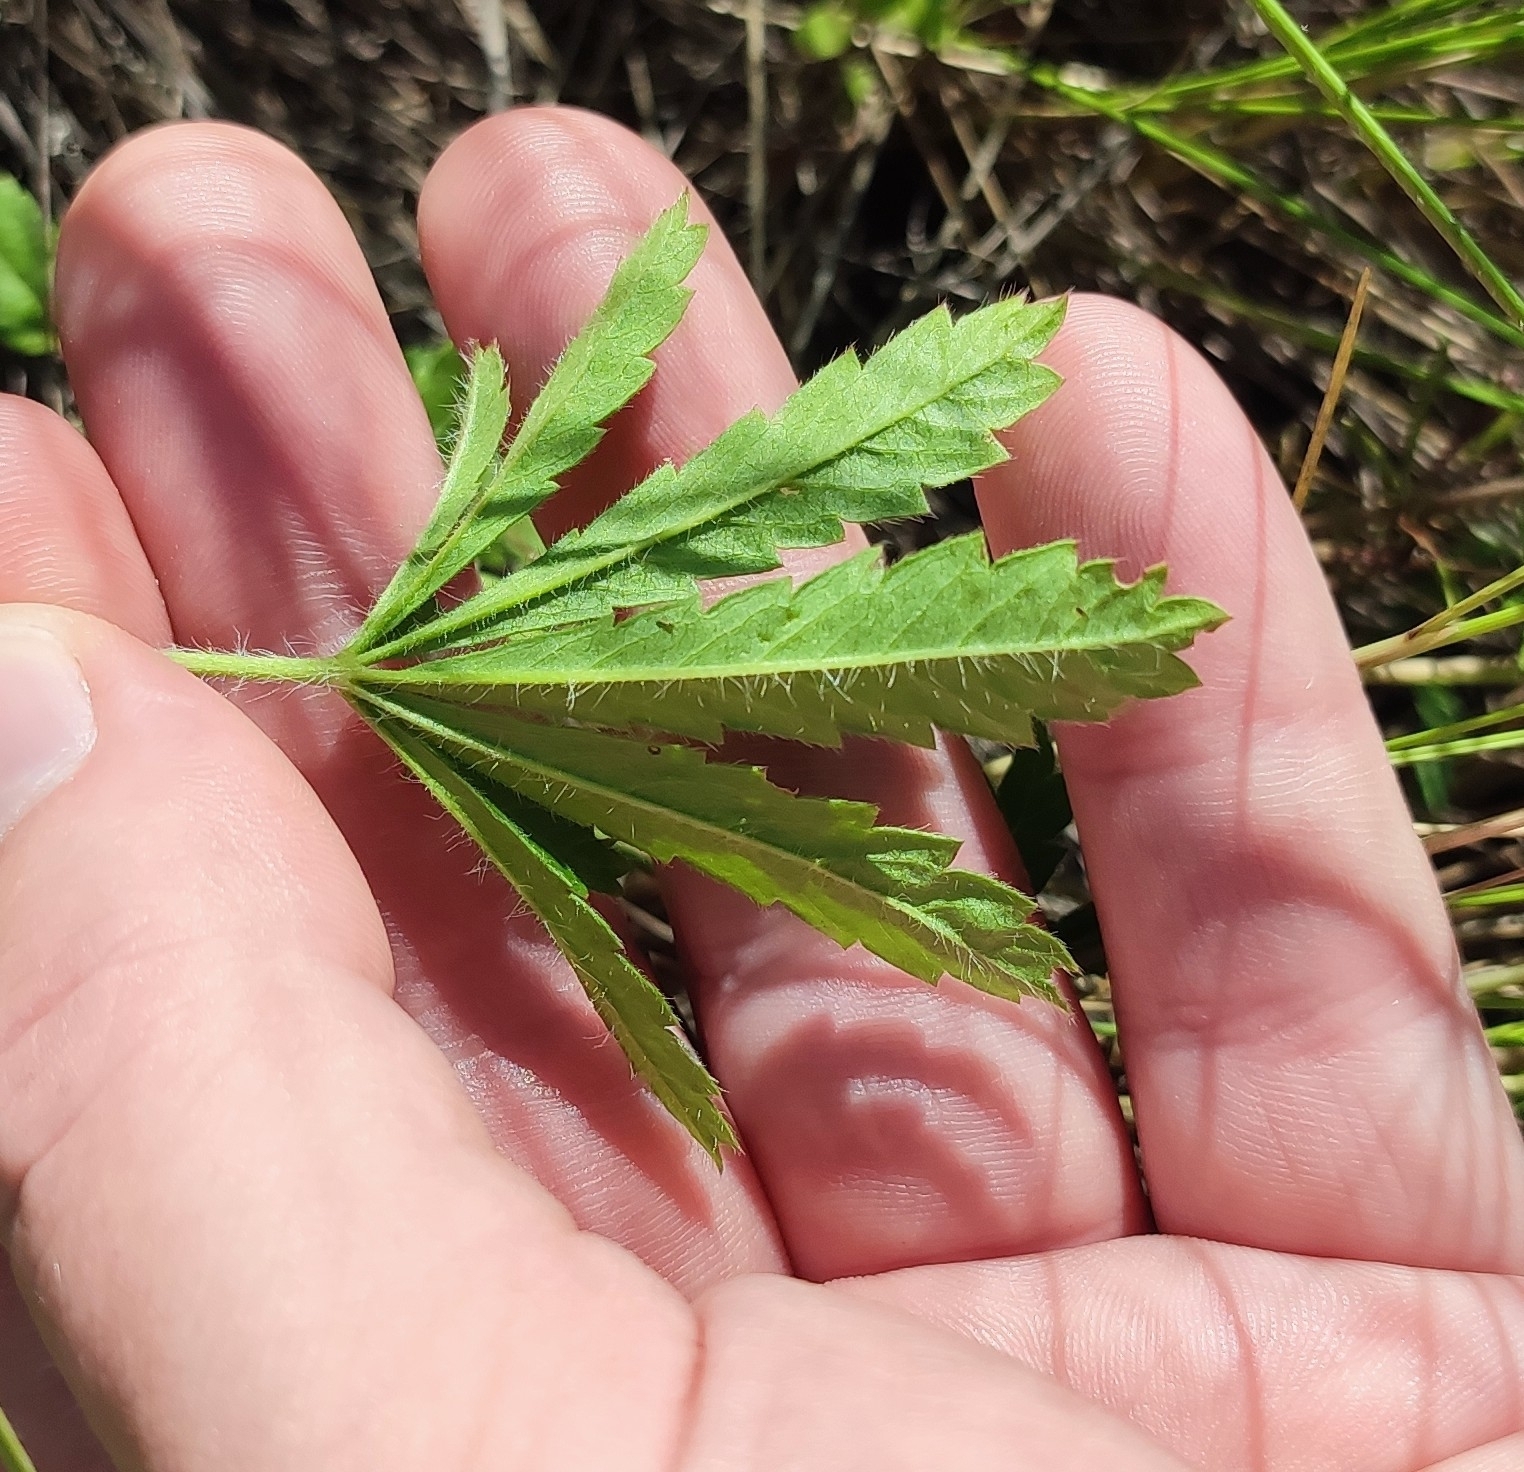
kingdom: Plantae
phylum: Tracheophyta
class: Magnoliopsida
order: Rosales
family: Rosaceae
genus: Potentilla
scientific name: Potentilla humifusa
